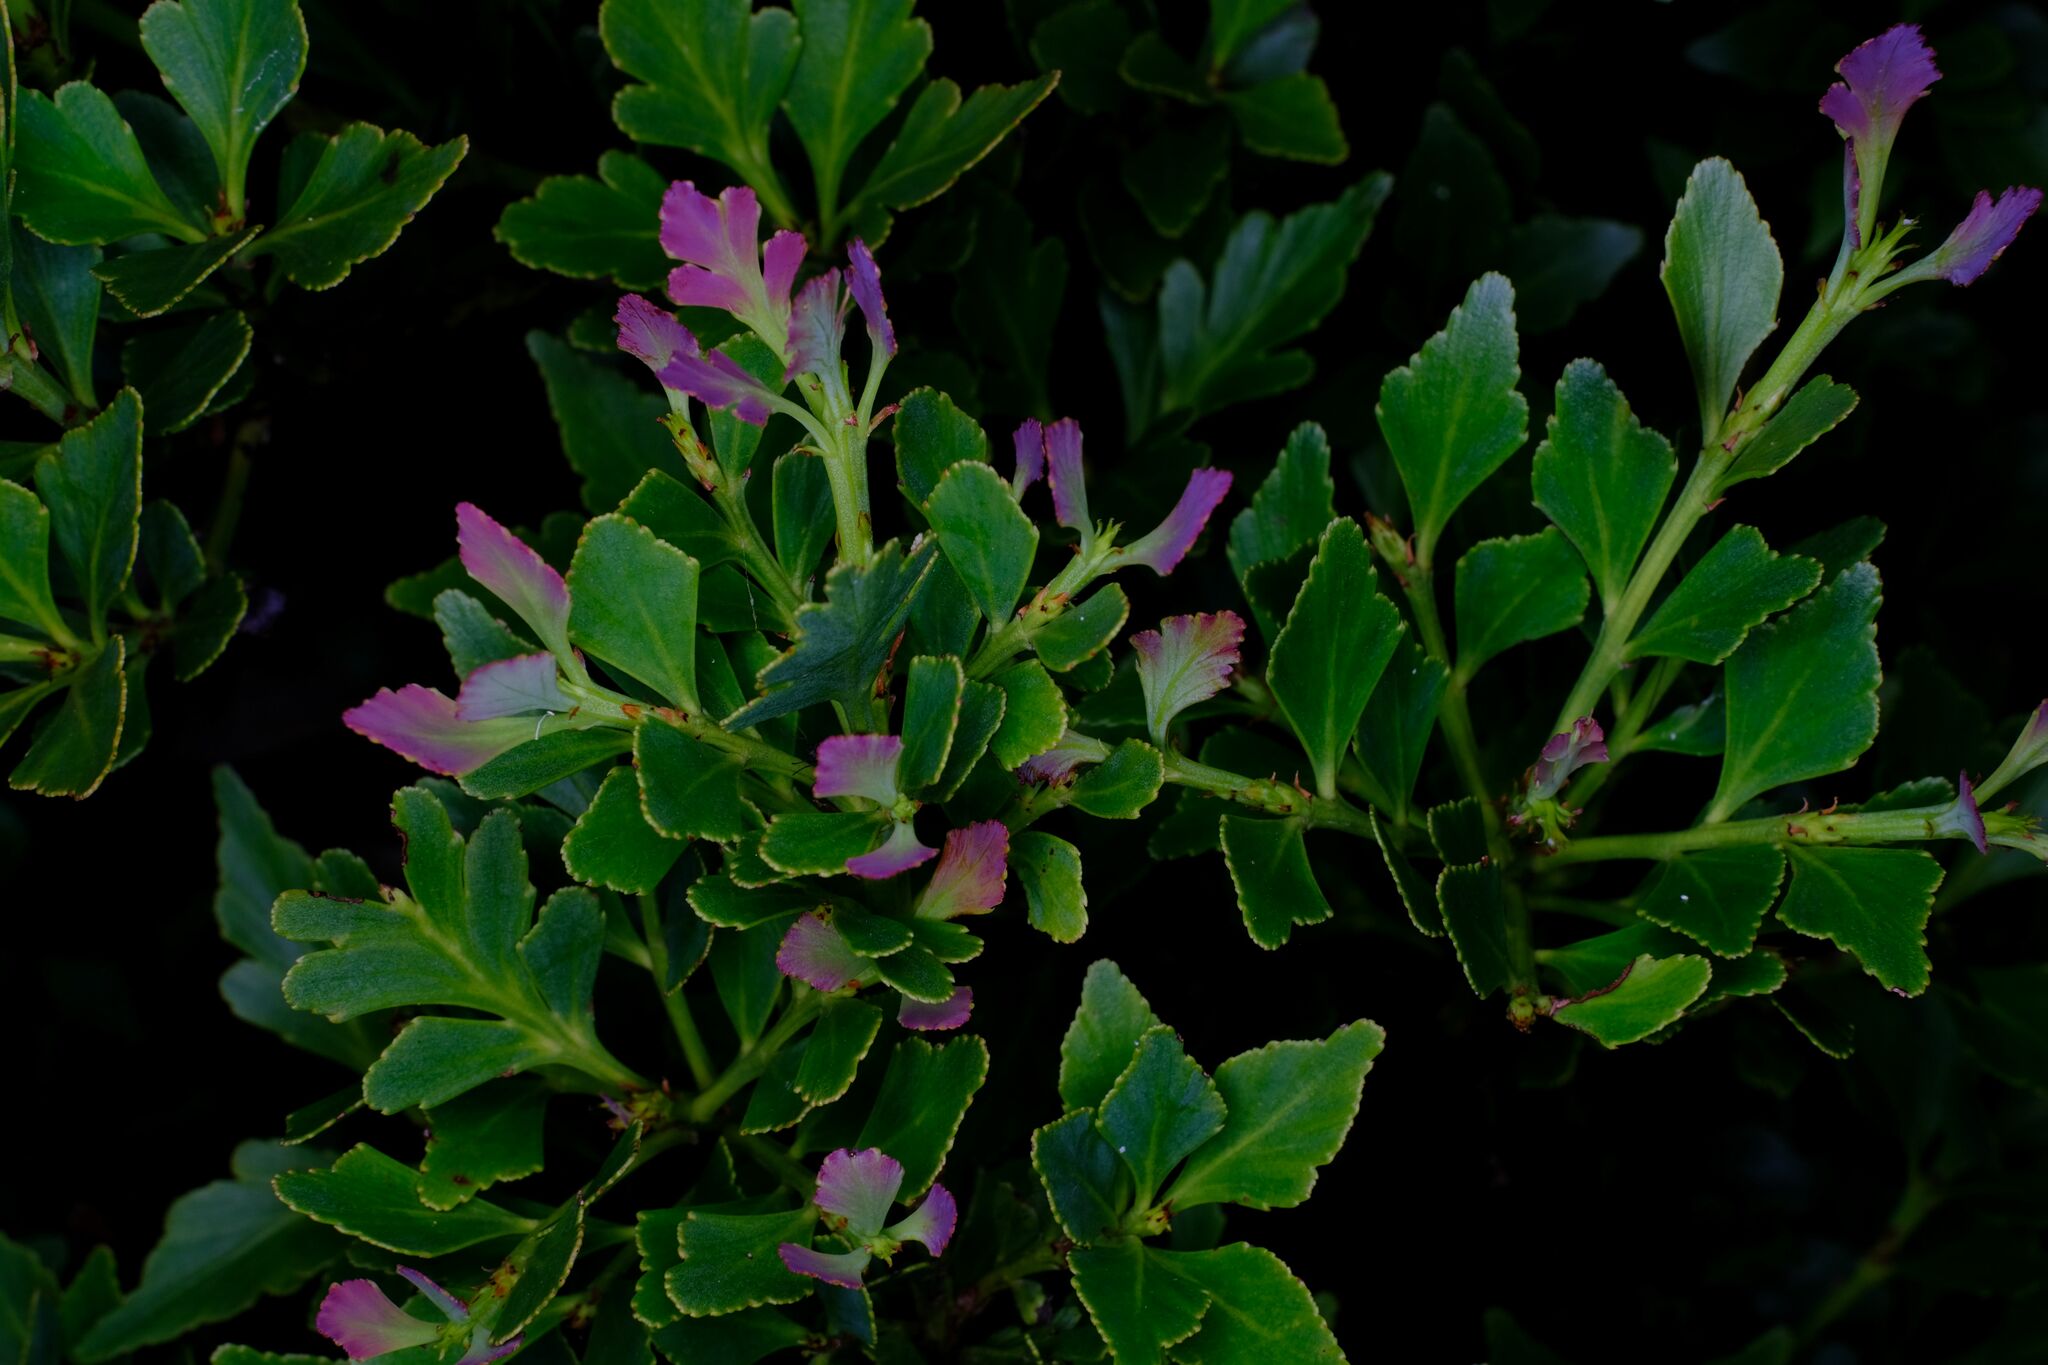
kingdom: Plantae
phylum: Tracheophyta
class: Pinopsida
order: Pinales
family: Phyllocladaceae
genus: Phyllocladus
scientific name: Phyllocladus aspleniifolius
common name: Celery-top pine
